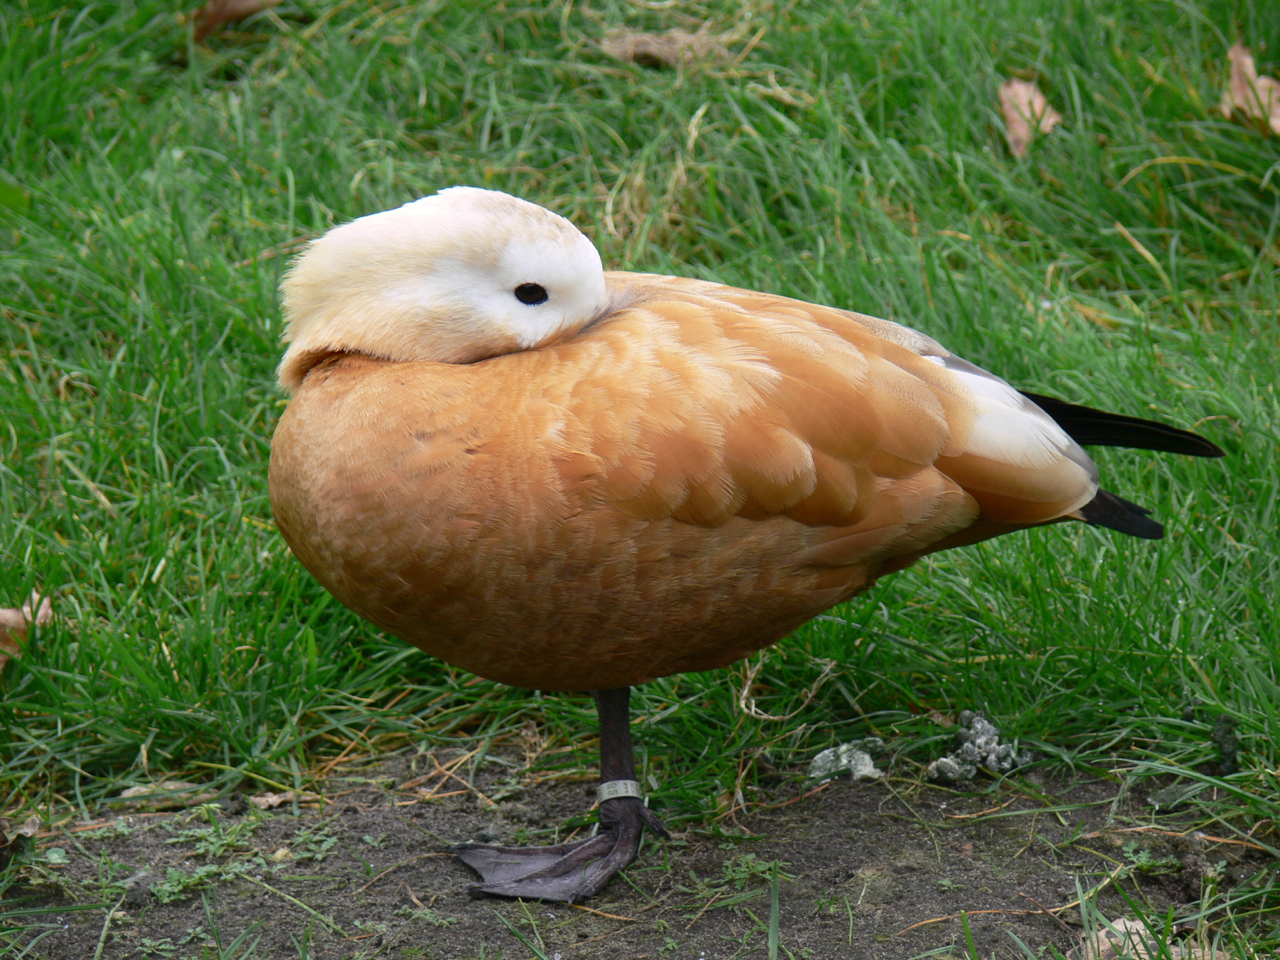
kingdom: Animalia
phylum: Chordata
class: Aves
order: Anseriformes
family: Anatidae
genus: Tadorna
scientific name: Tadorna ferruginea
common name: Ruddy shelduck
